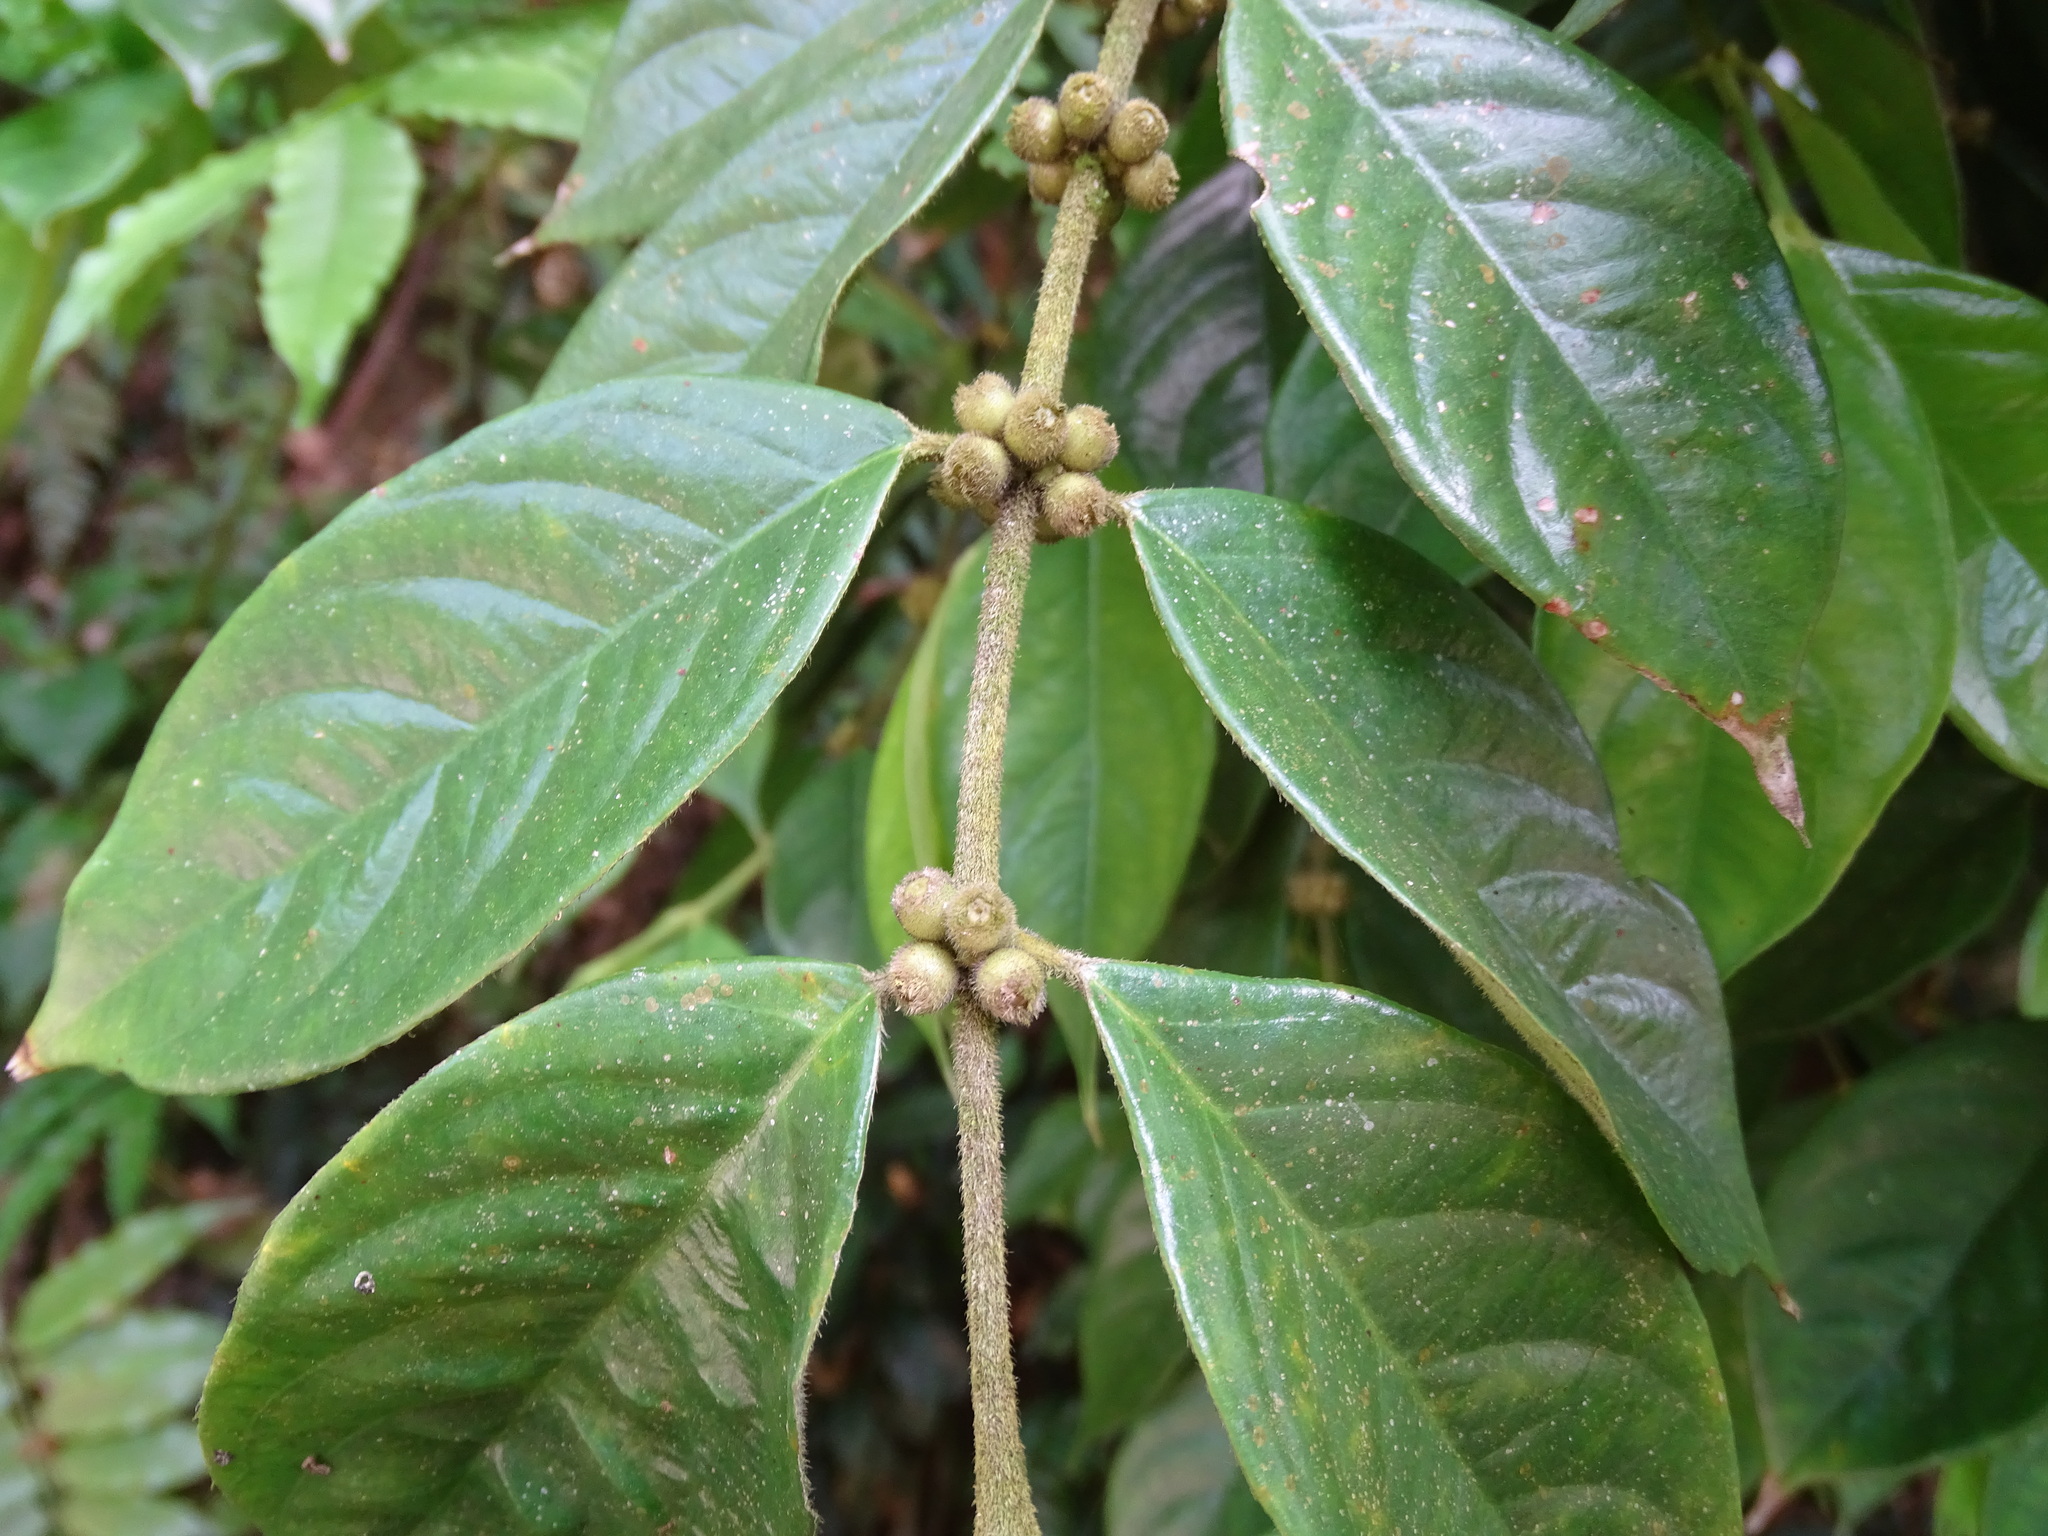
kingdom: Plantae
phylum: Tracheophyta
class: Magnoliopsida
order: Gentianales
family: Rubiaceae
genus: Lasianthus
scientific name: Lasianthus hispidulus
